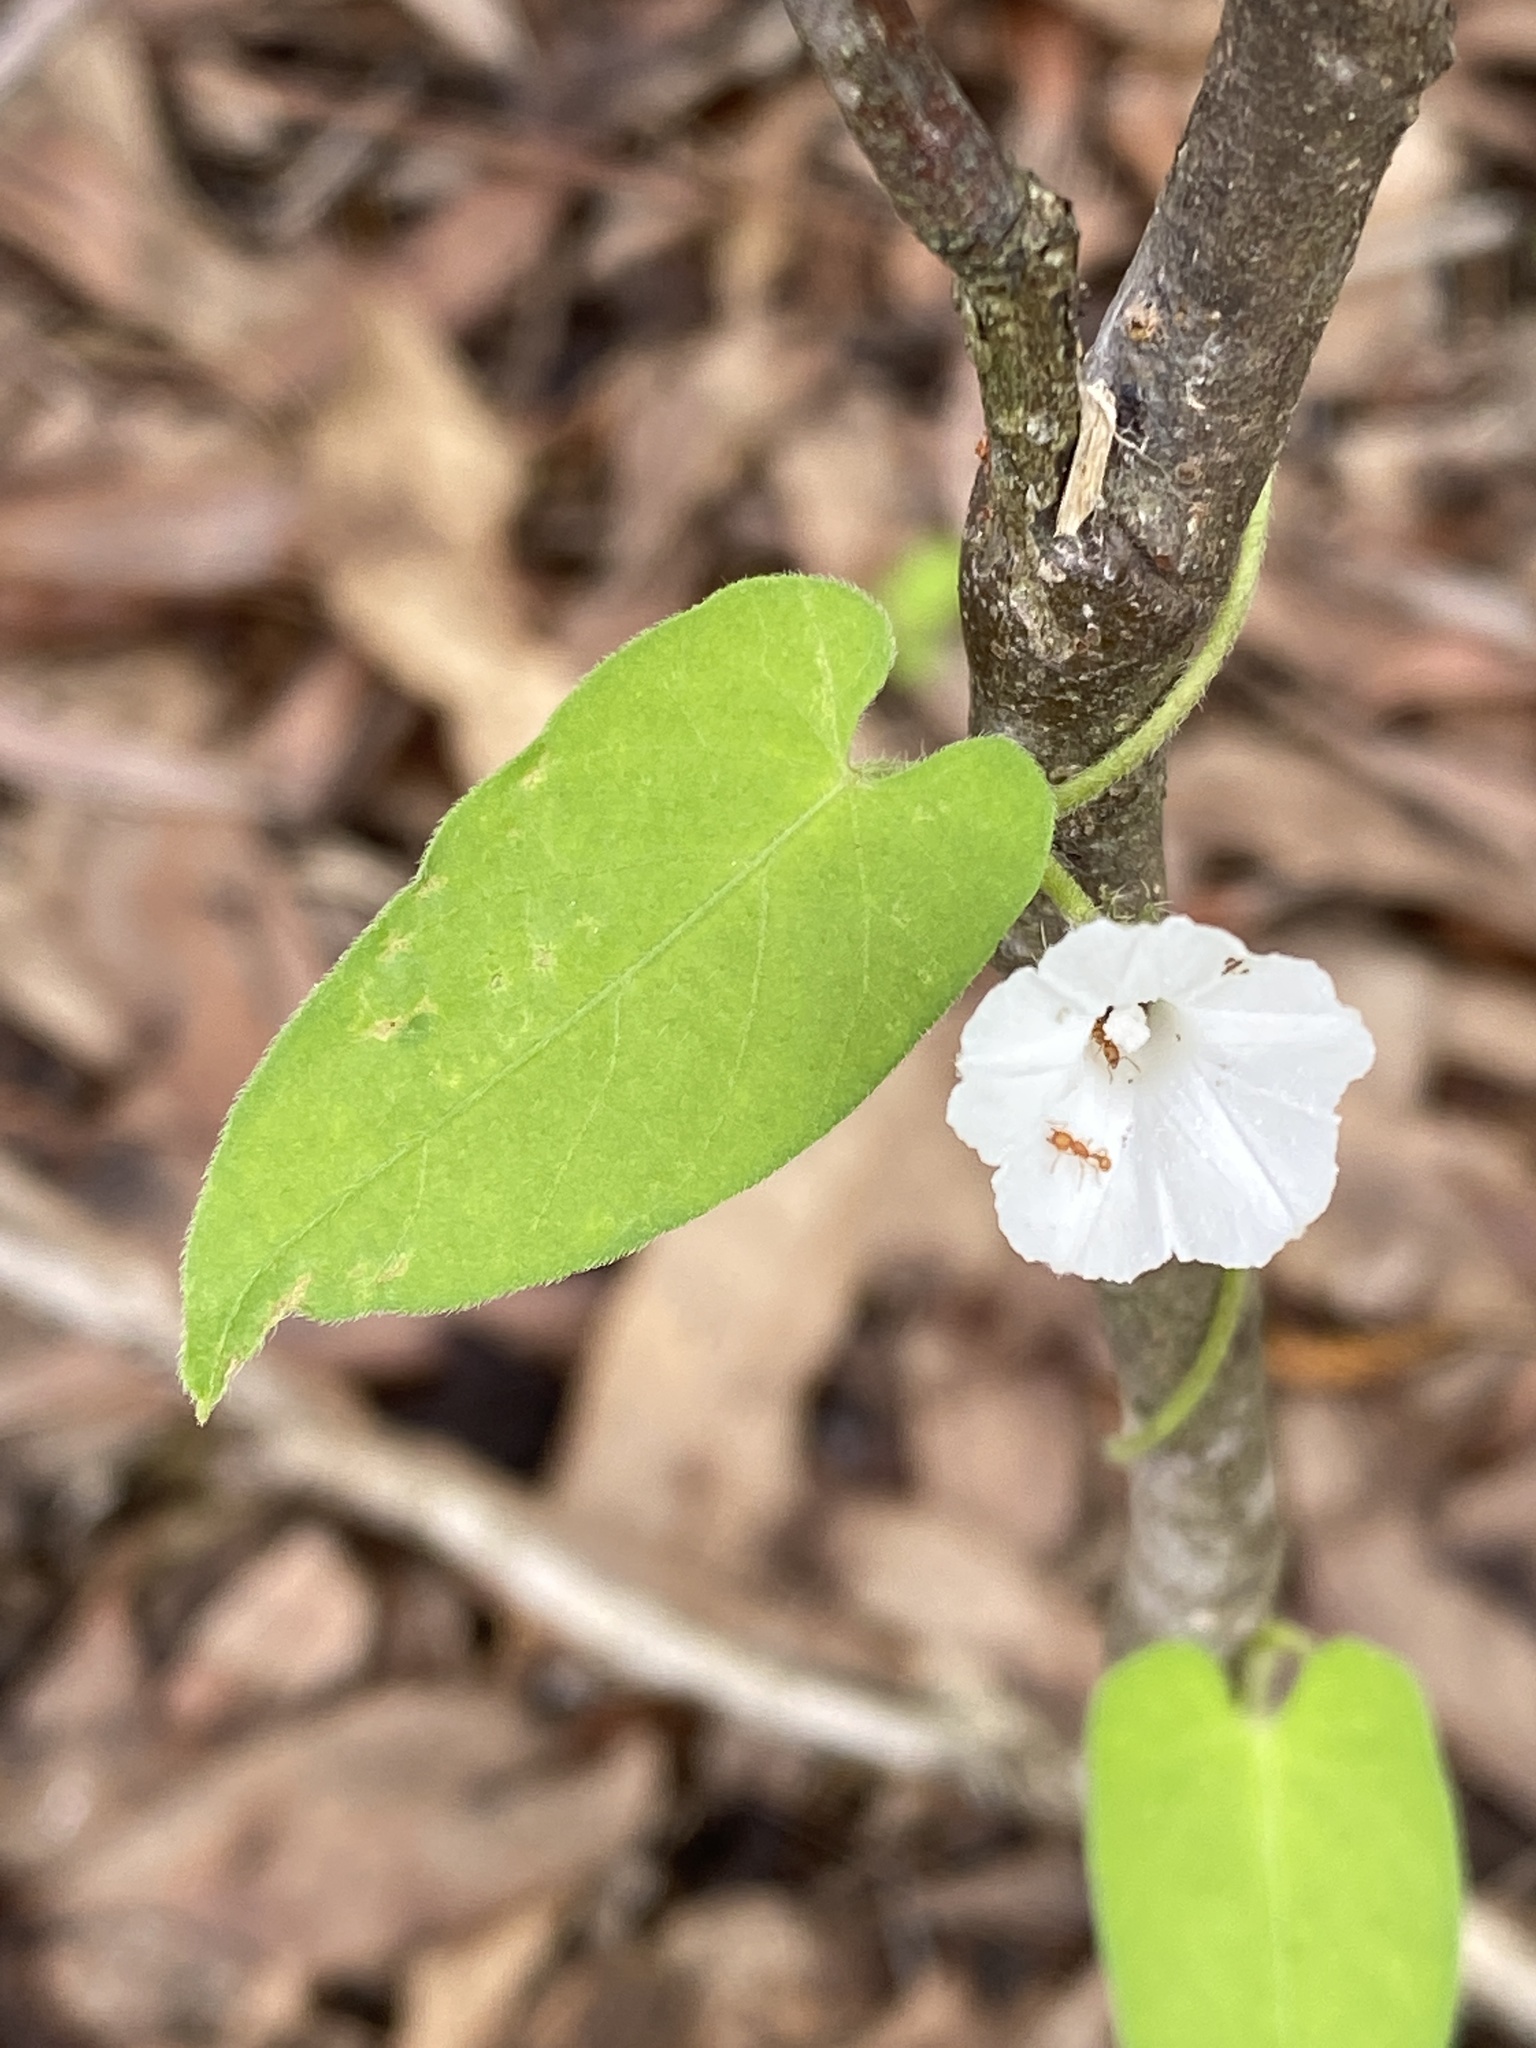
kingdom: Plantae
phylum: Tracheophyta
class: Magnoliopsida
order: Solanales
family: Convolvulaceae
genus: Ipomoea
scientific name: Ipomoea biflora
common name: Bellvine
